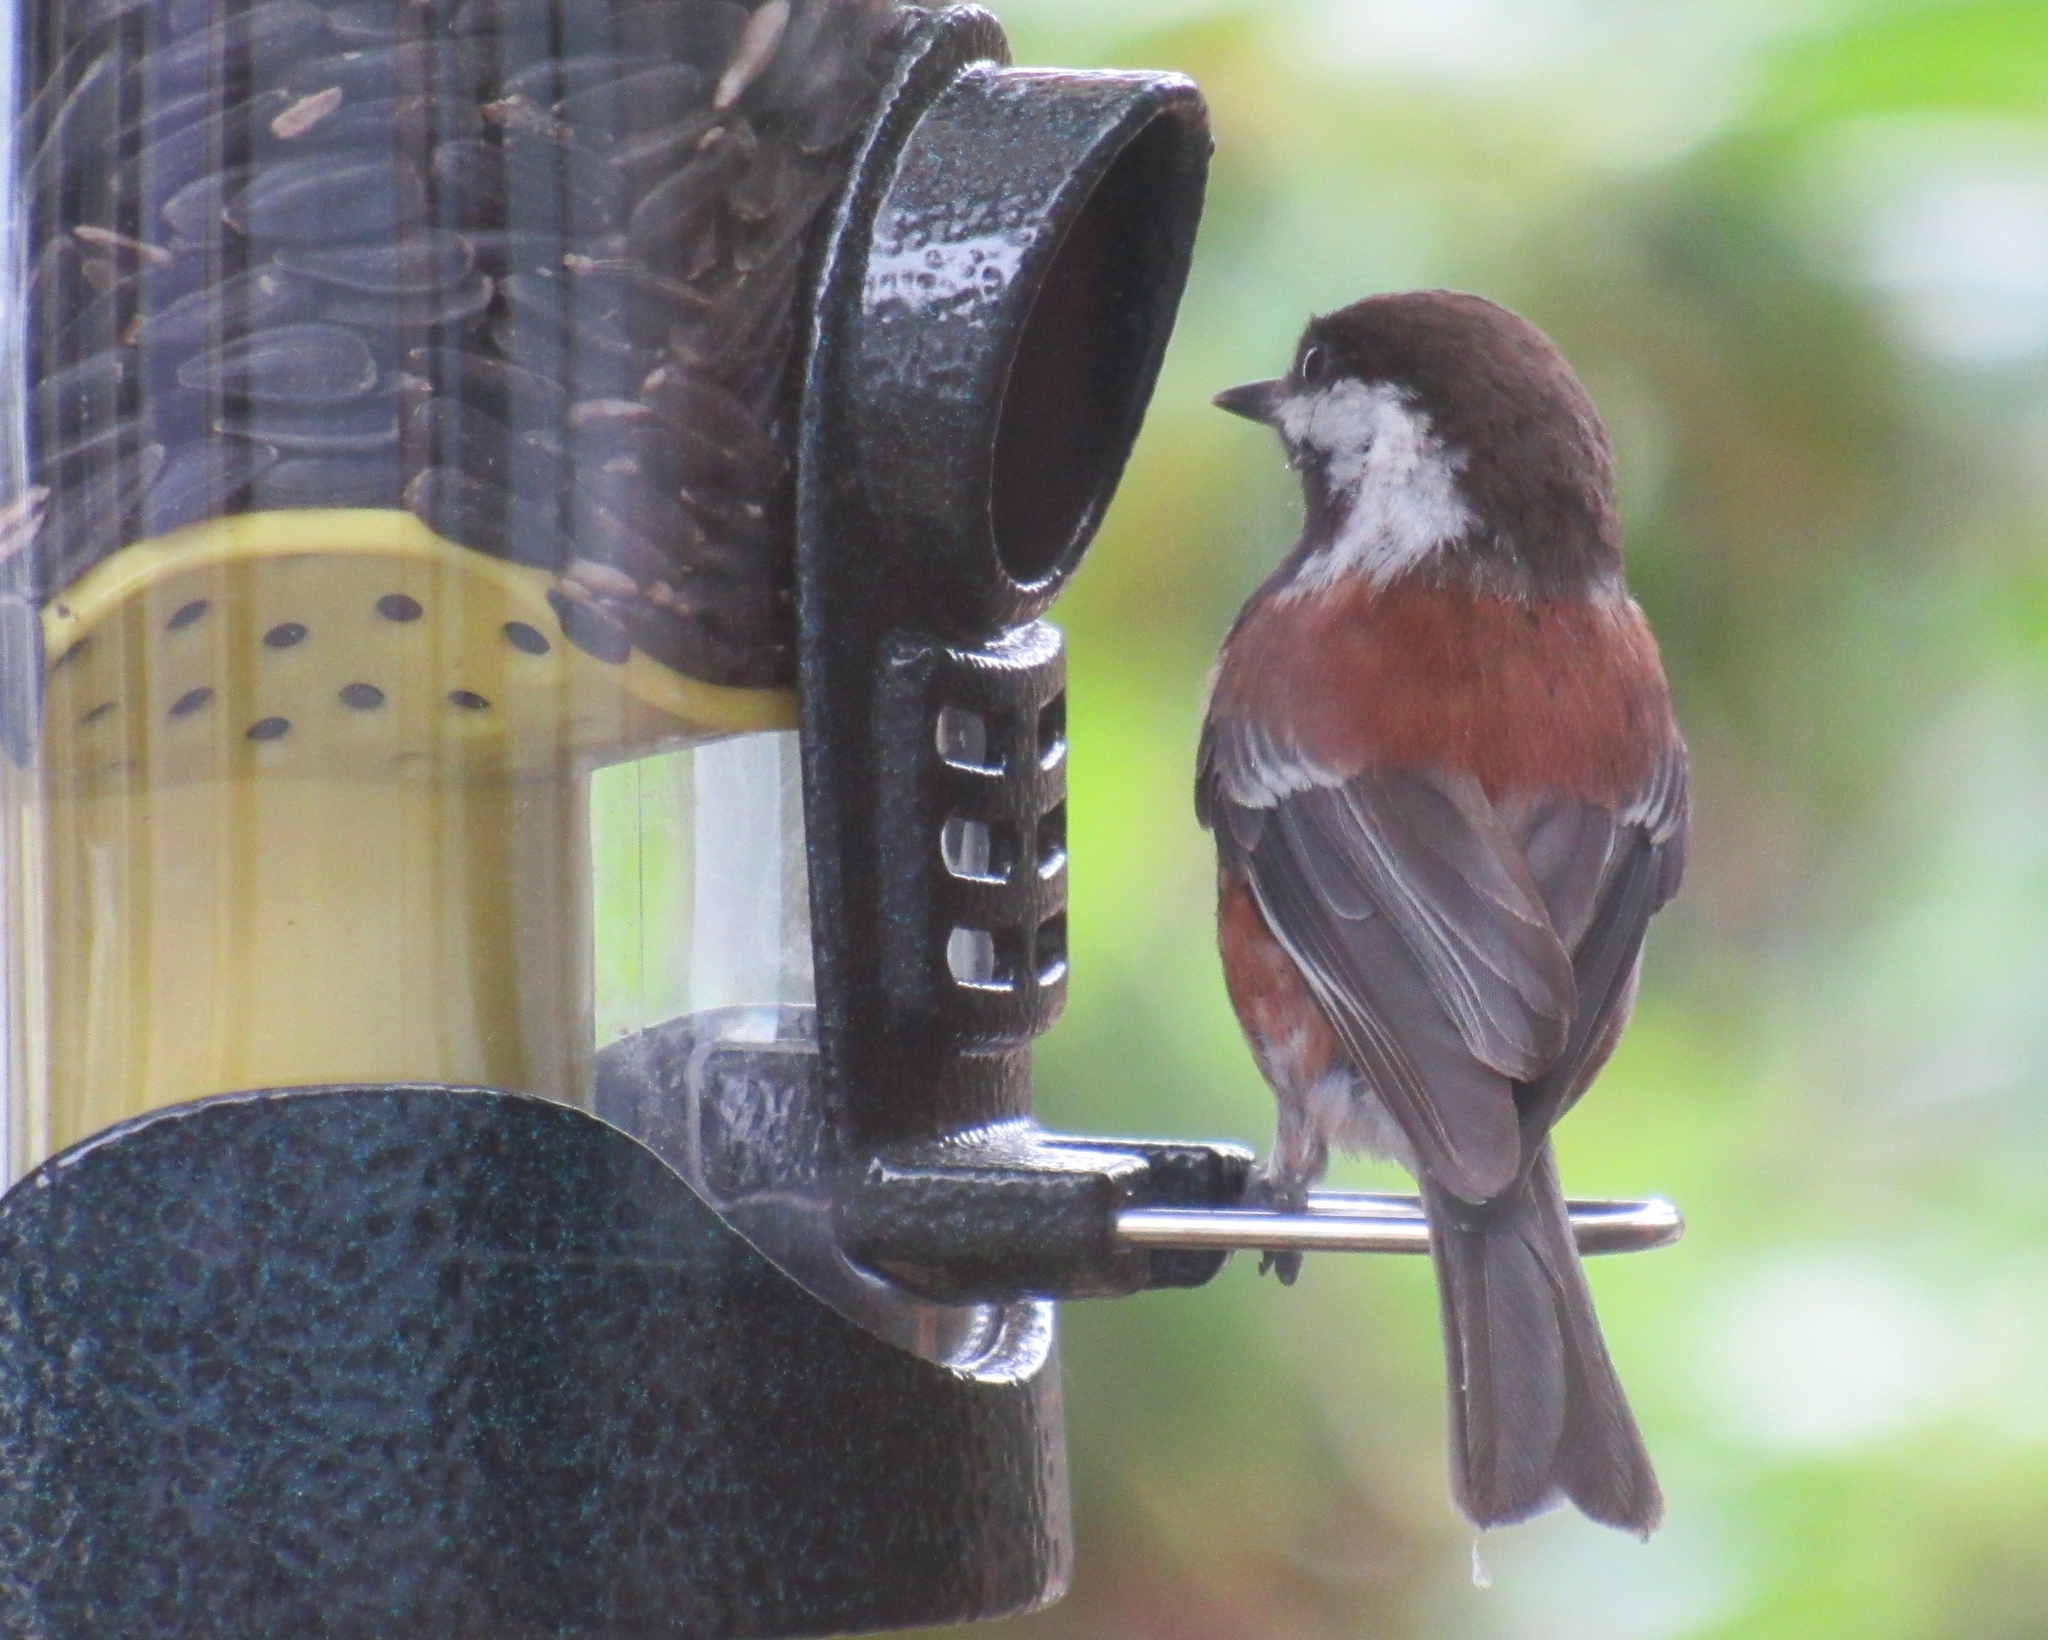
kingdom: Animalia
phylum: Chordata
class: Aves
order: Passeriformes
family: Paridae
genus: Poecile
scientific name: Poecile rufescens
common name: Chestnut-backed chickadee
